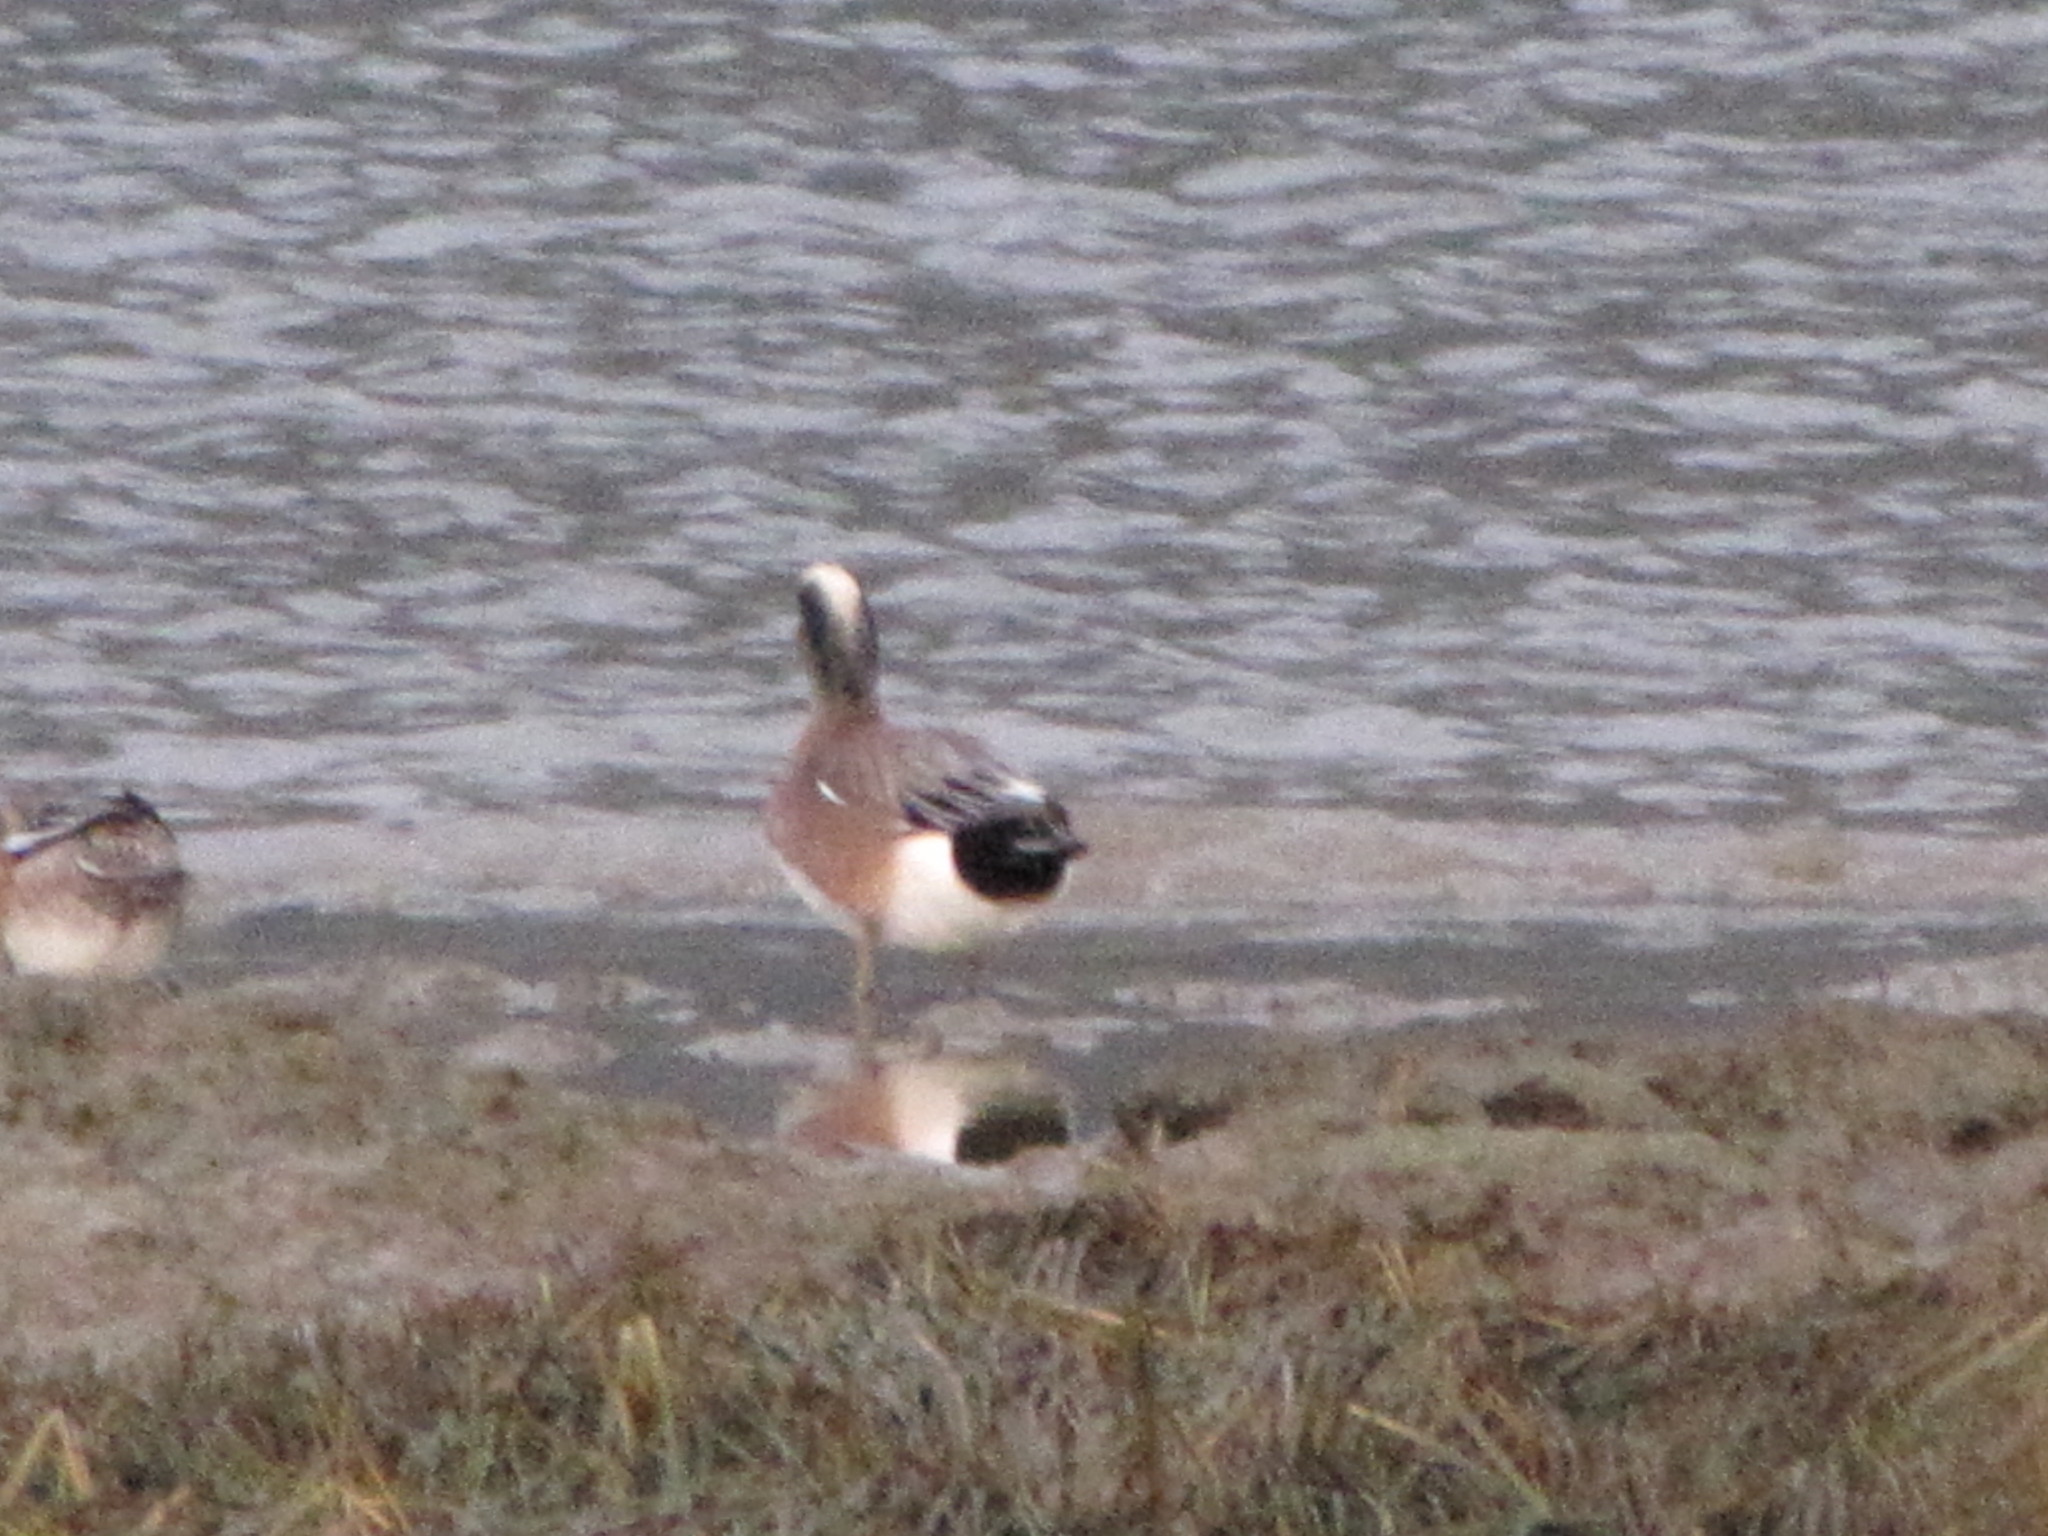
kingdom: Animalia
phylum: Chordata
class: Aves
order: Anseriformes
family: Anatidae
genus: Mareca
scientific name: Mareca americana
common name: American wigeon
